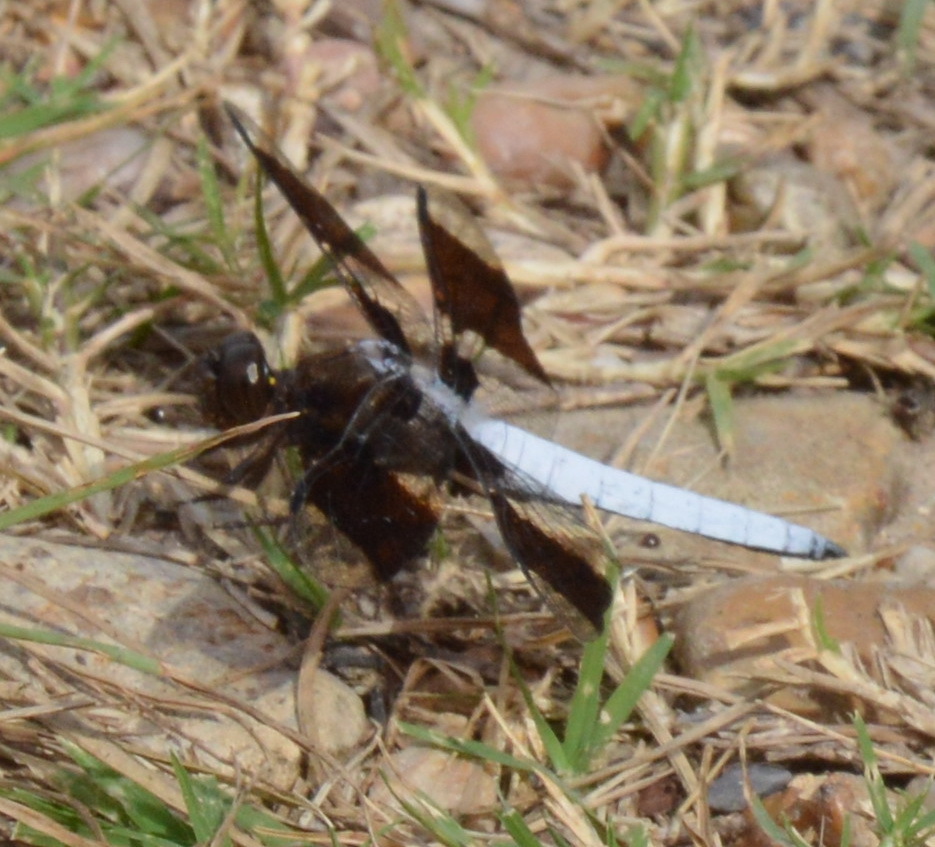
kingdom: Animalia
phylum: Arthropoda
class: Insecta
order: Odonata
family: Libellulidae
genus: Plathemis
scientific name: Plathemis lydia
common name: Common whitetail
